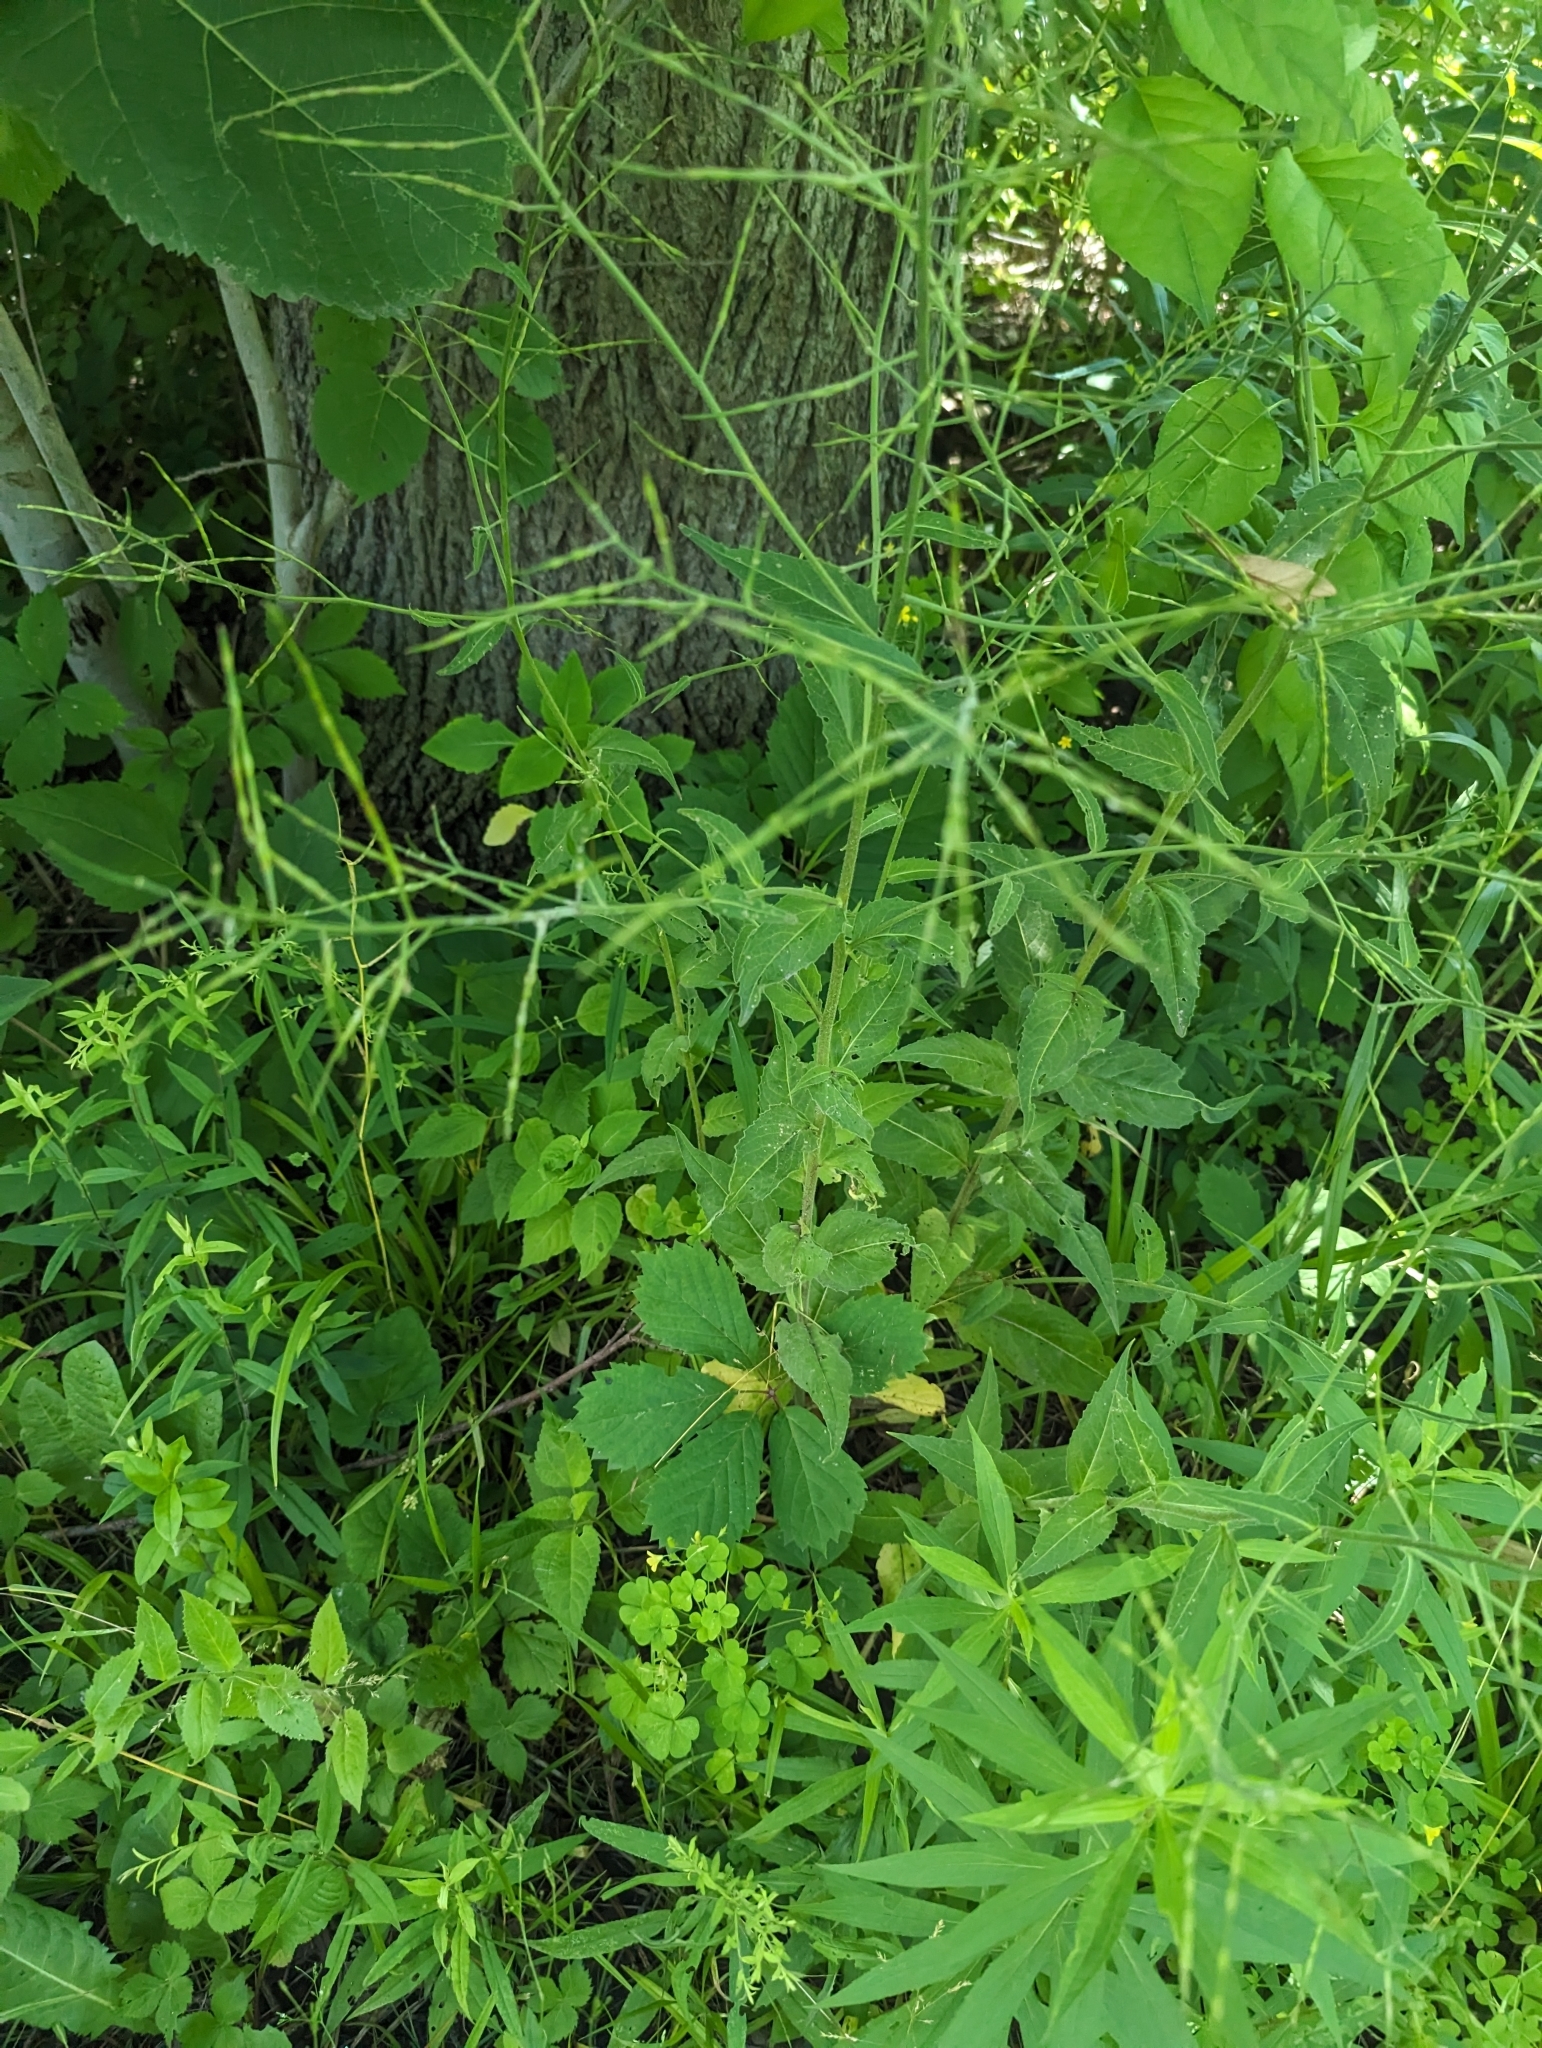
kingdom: Plantae
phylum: Tracheophyta
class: Magnoliopsida
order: Brassicales
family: Brassicaceae
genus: Hesperis
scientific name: Hesperis matronalis
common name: Dame's-violet
